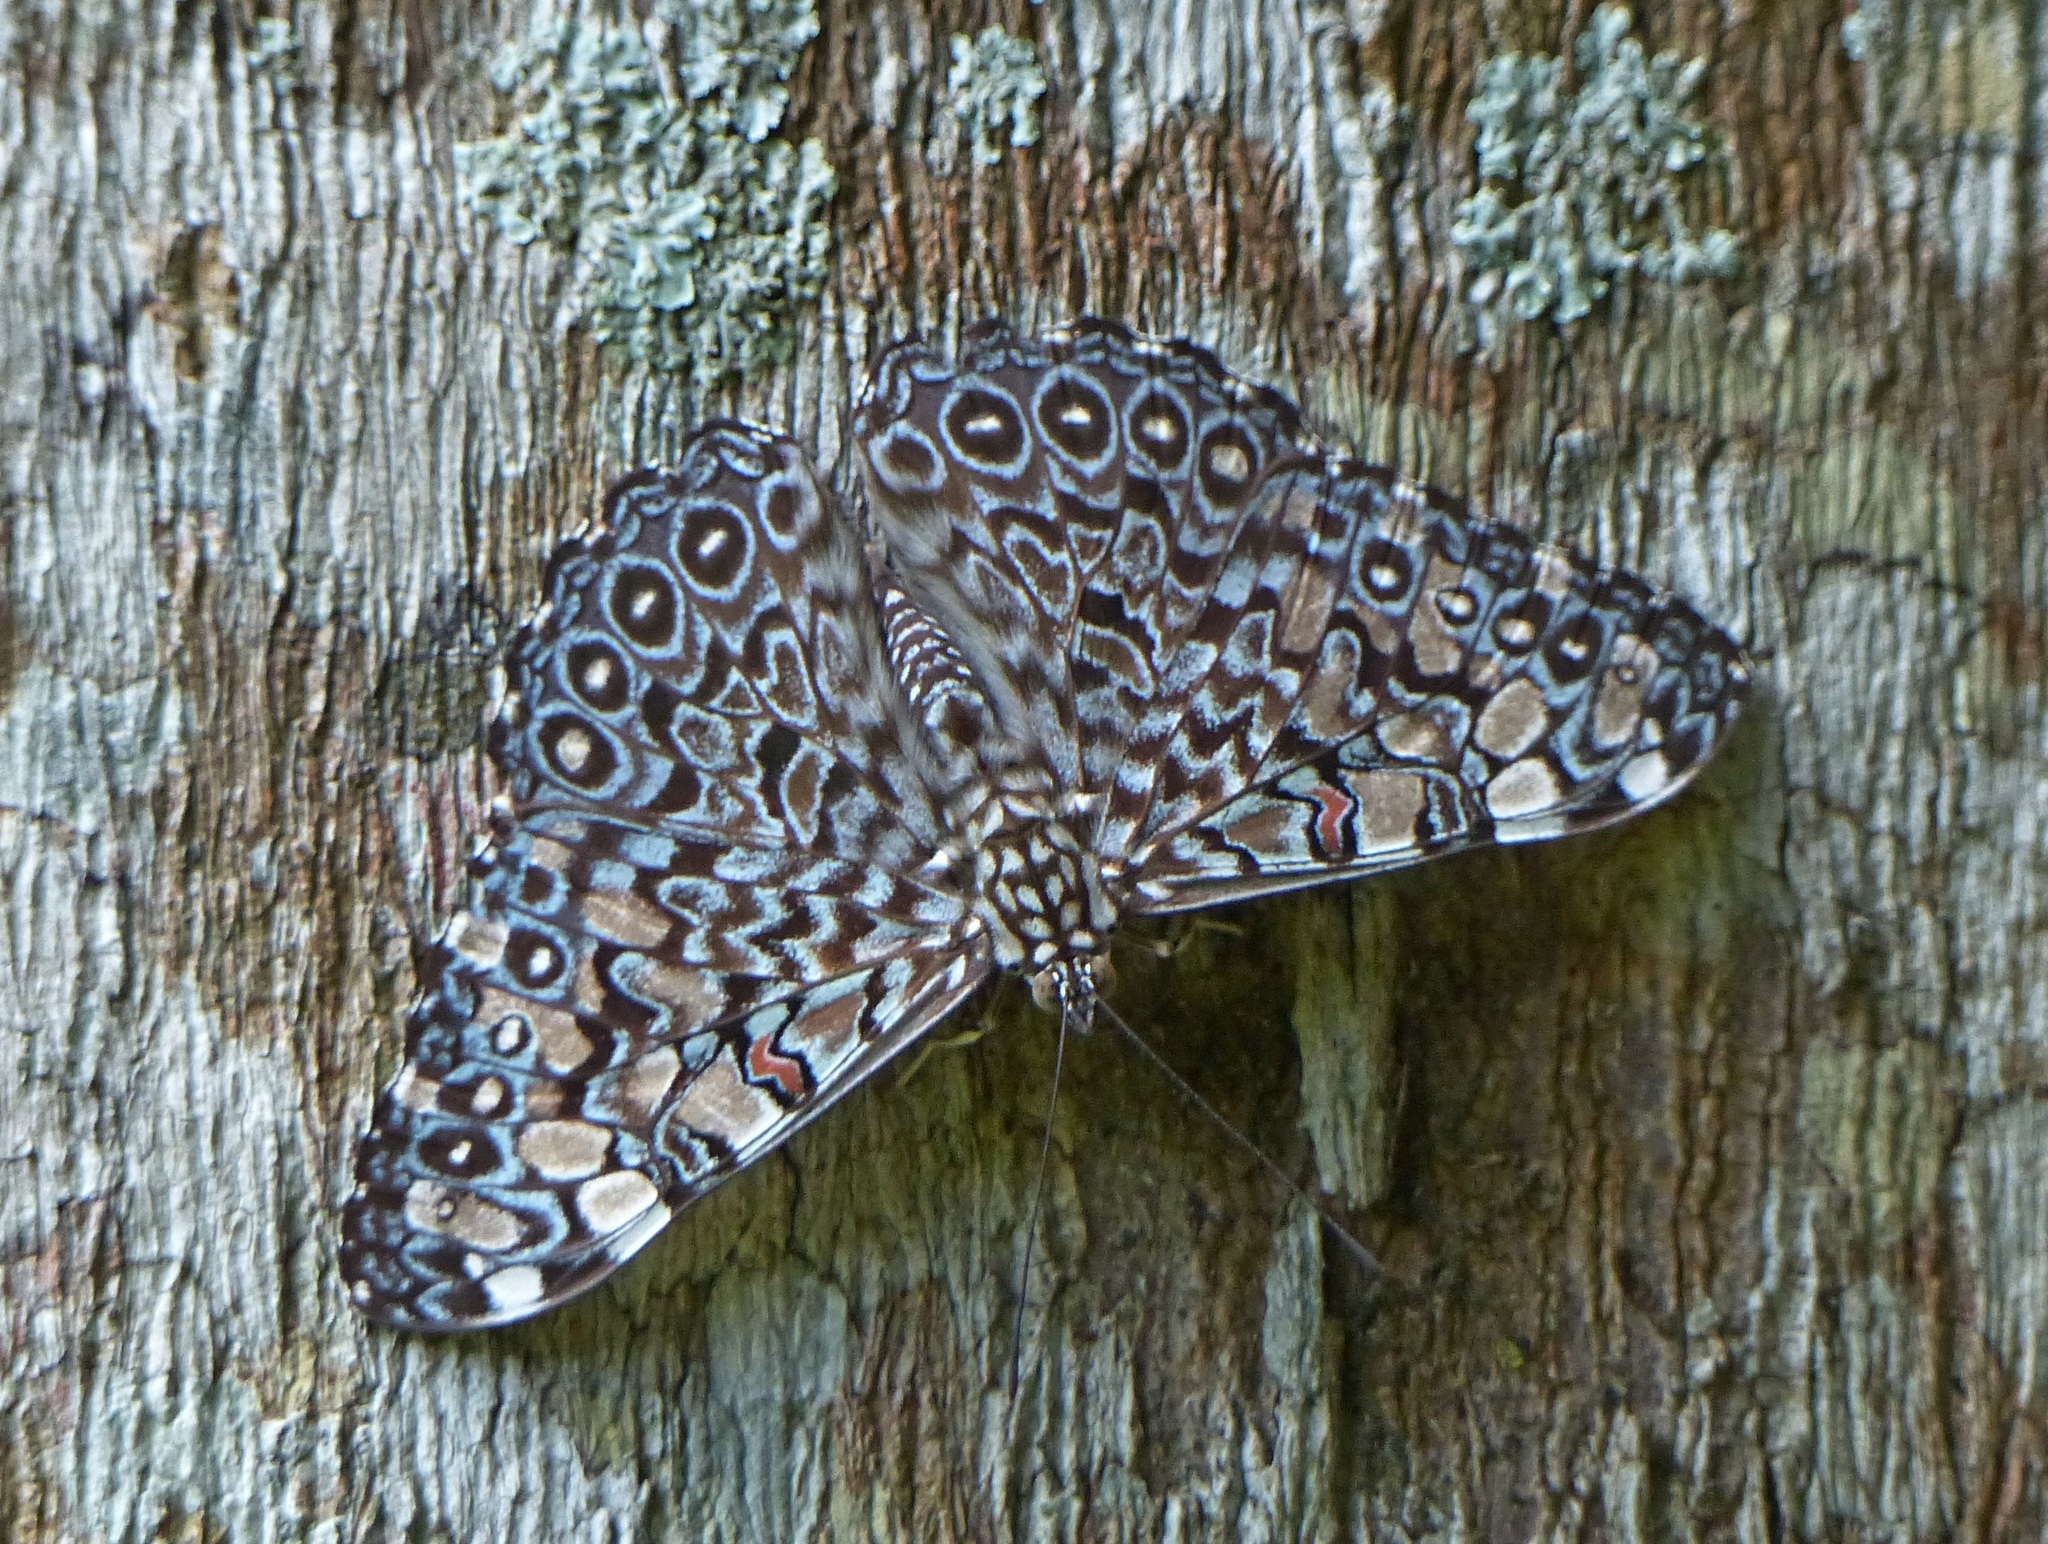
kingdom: Animalia
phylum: Arthropoda
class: Insecta
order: Lepidoptera
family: Nymphalidae
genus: Hamadryas
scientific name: Hamadryas feronia
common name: Variable cracker
